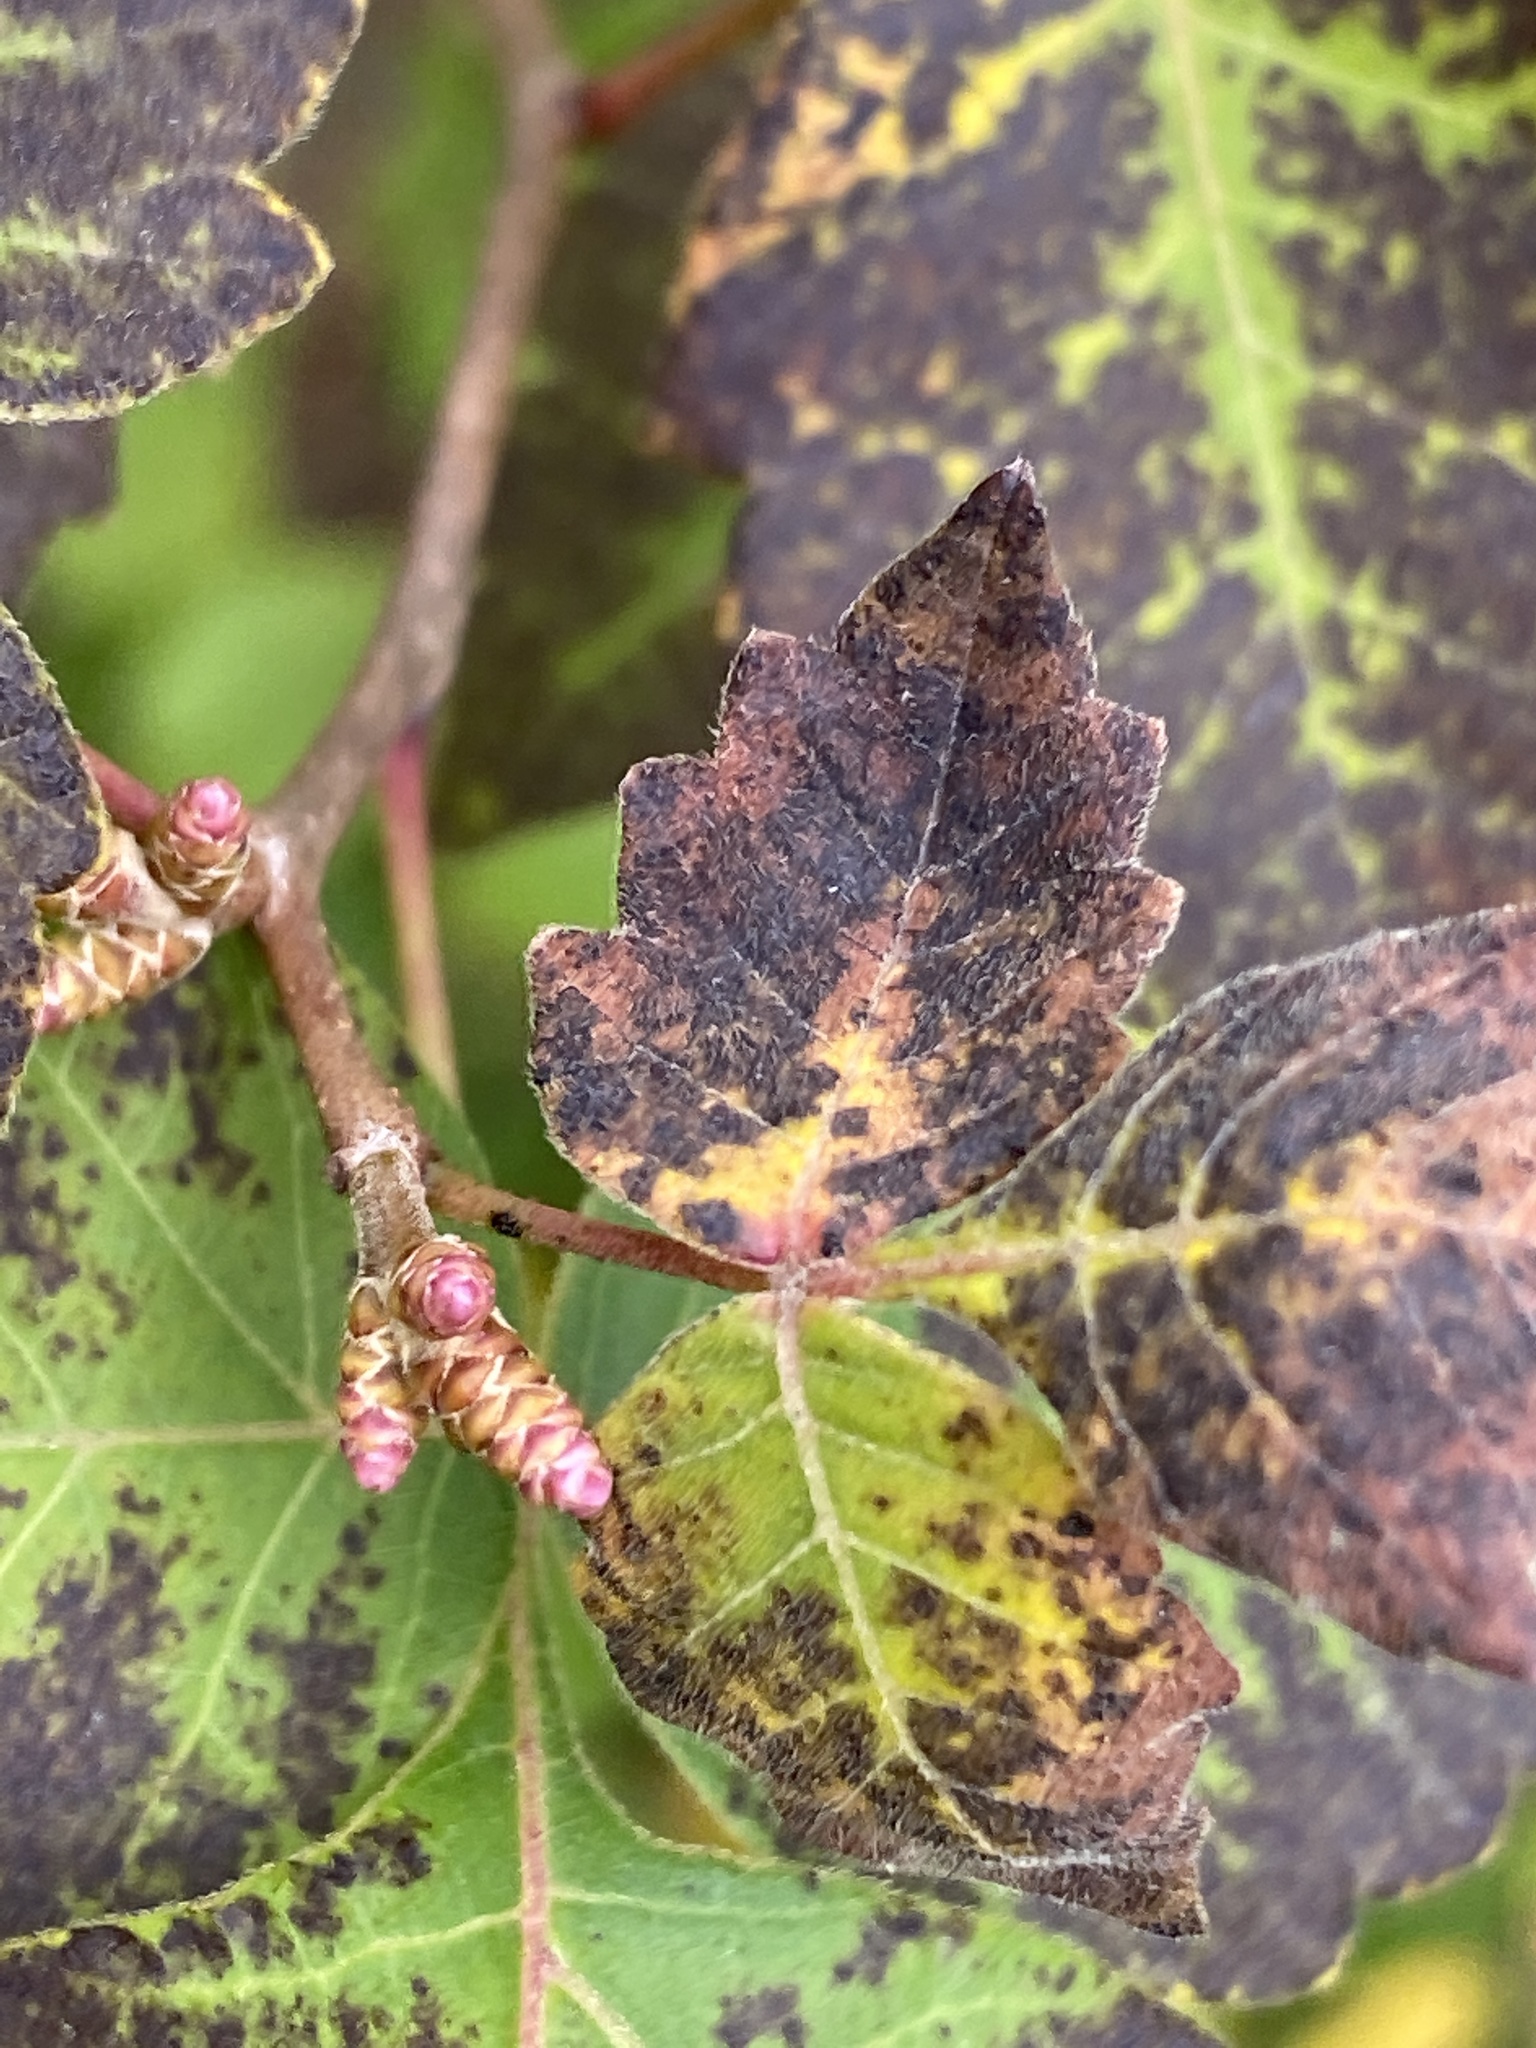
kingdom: Plantae
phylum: Tracheophyta
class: Magnoliopsida
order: Sapindales
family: Anacardiaceae
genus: Rhus
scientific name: Rhus aromatica
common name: Aromatic sumac
